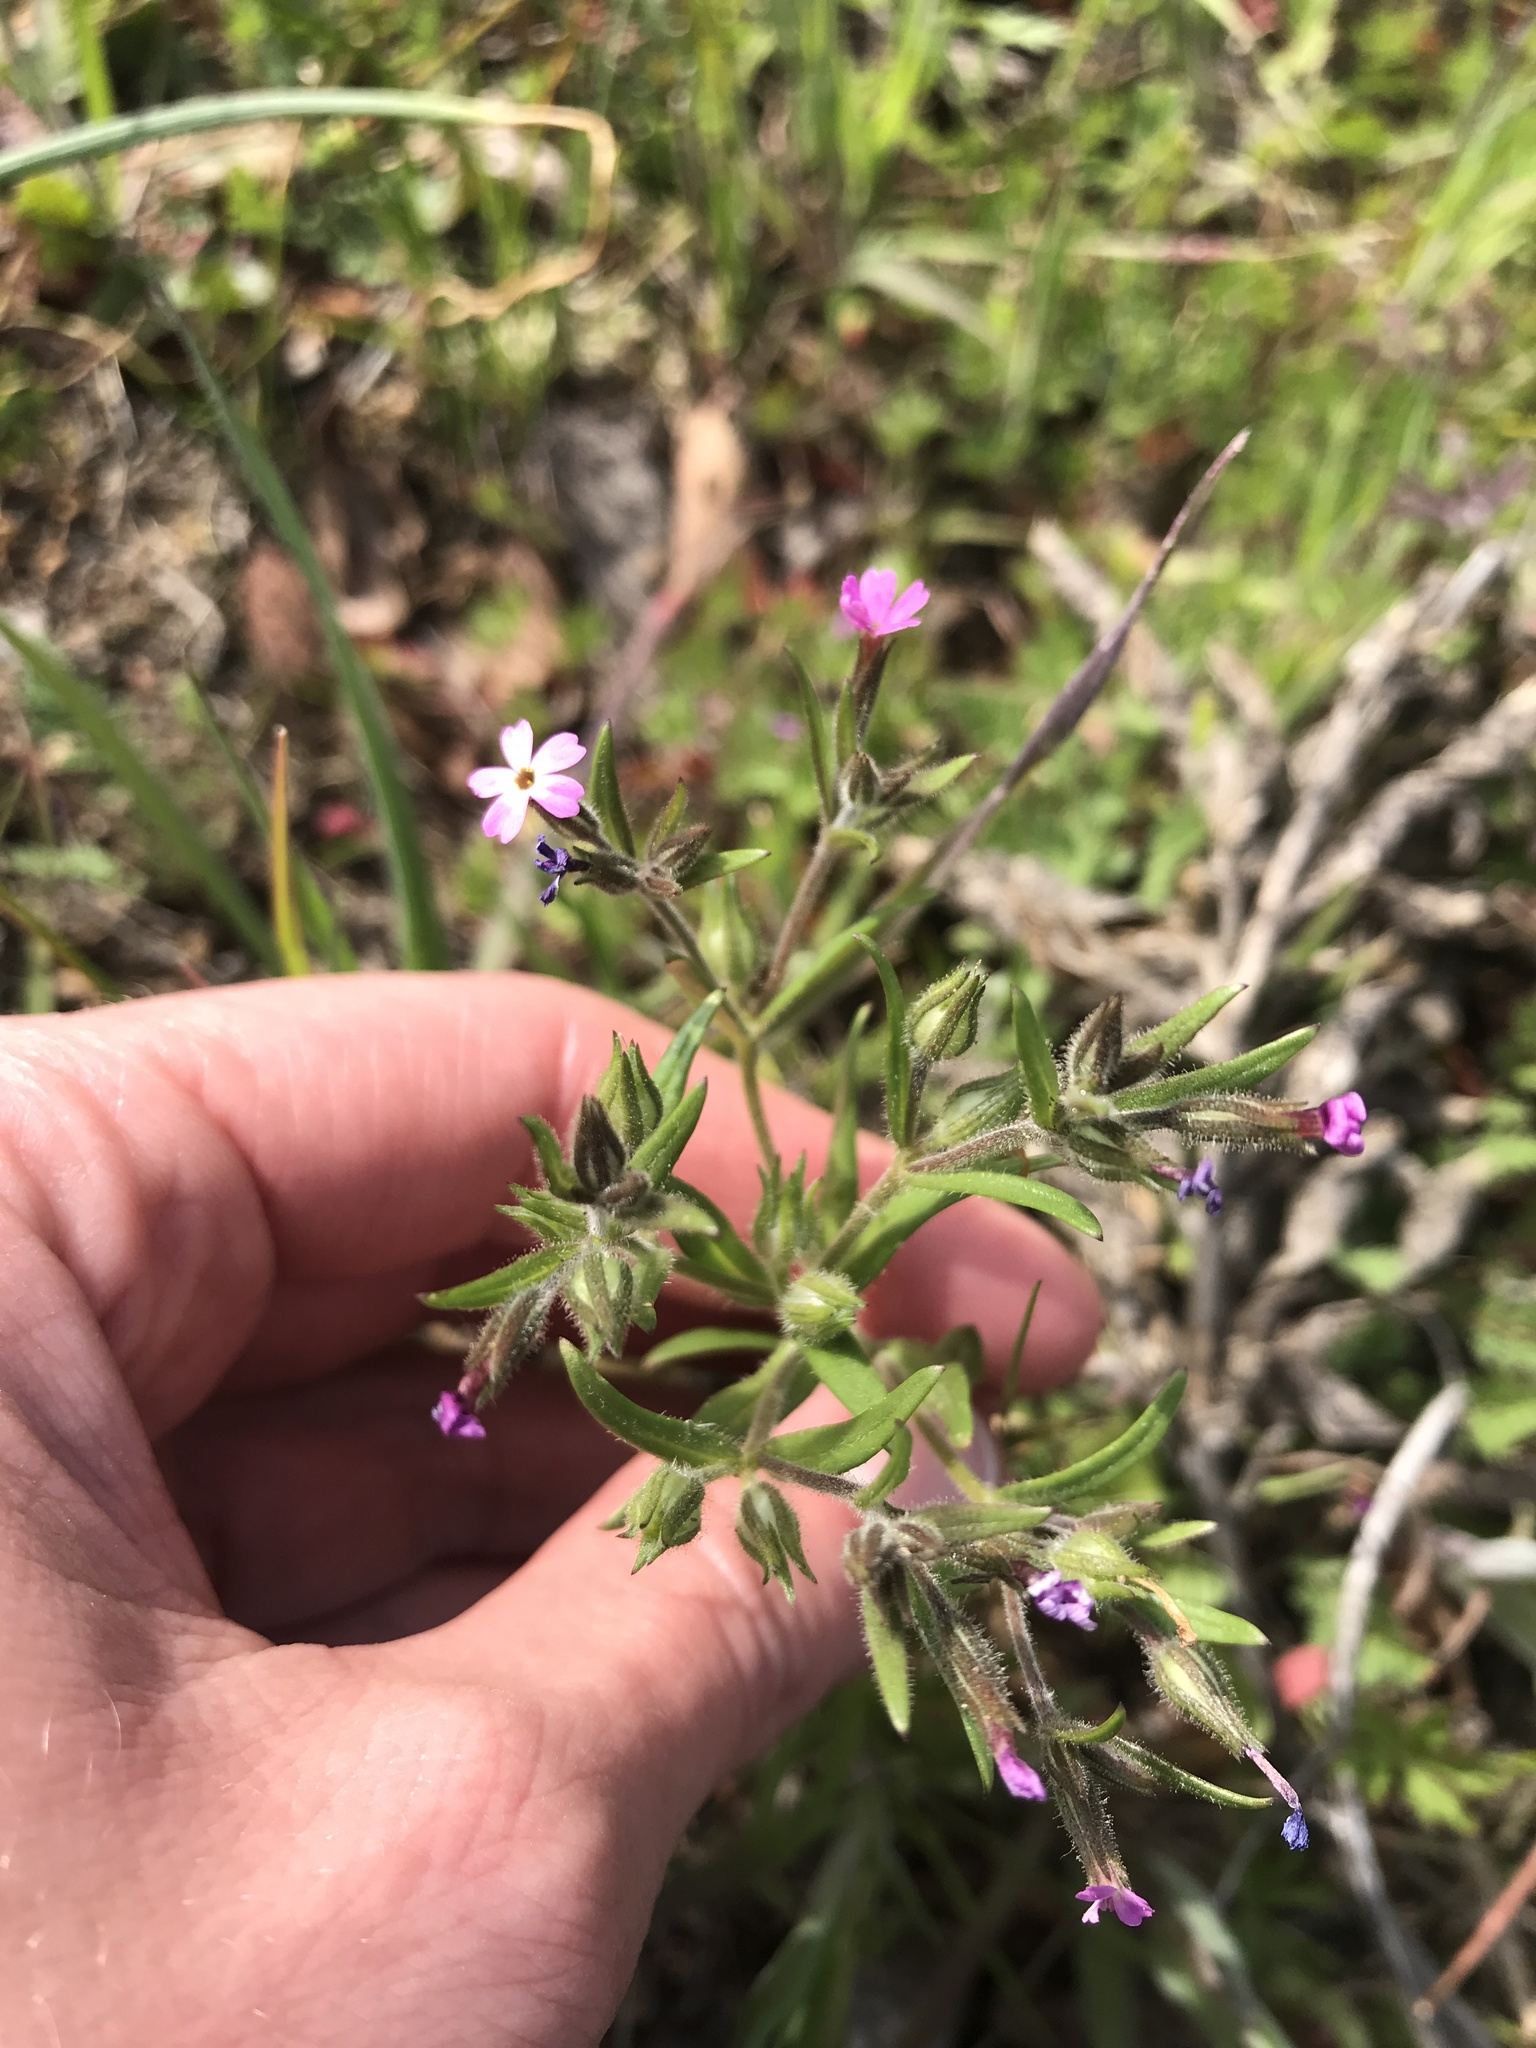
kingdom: Plantae
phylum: Tracheophyta
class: Magnoliopsida
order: Ericales
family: Polemoniaceae
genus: Phlox
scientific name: Phlox gracilis
